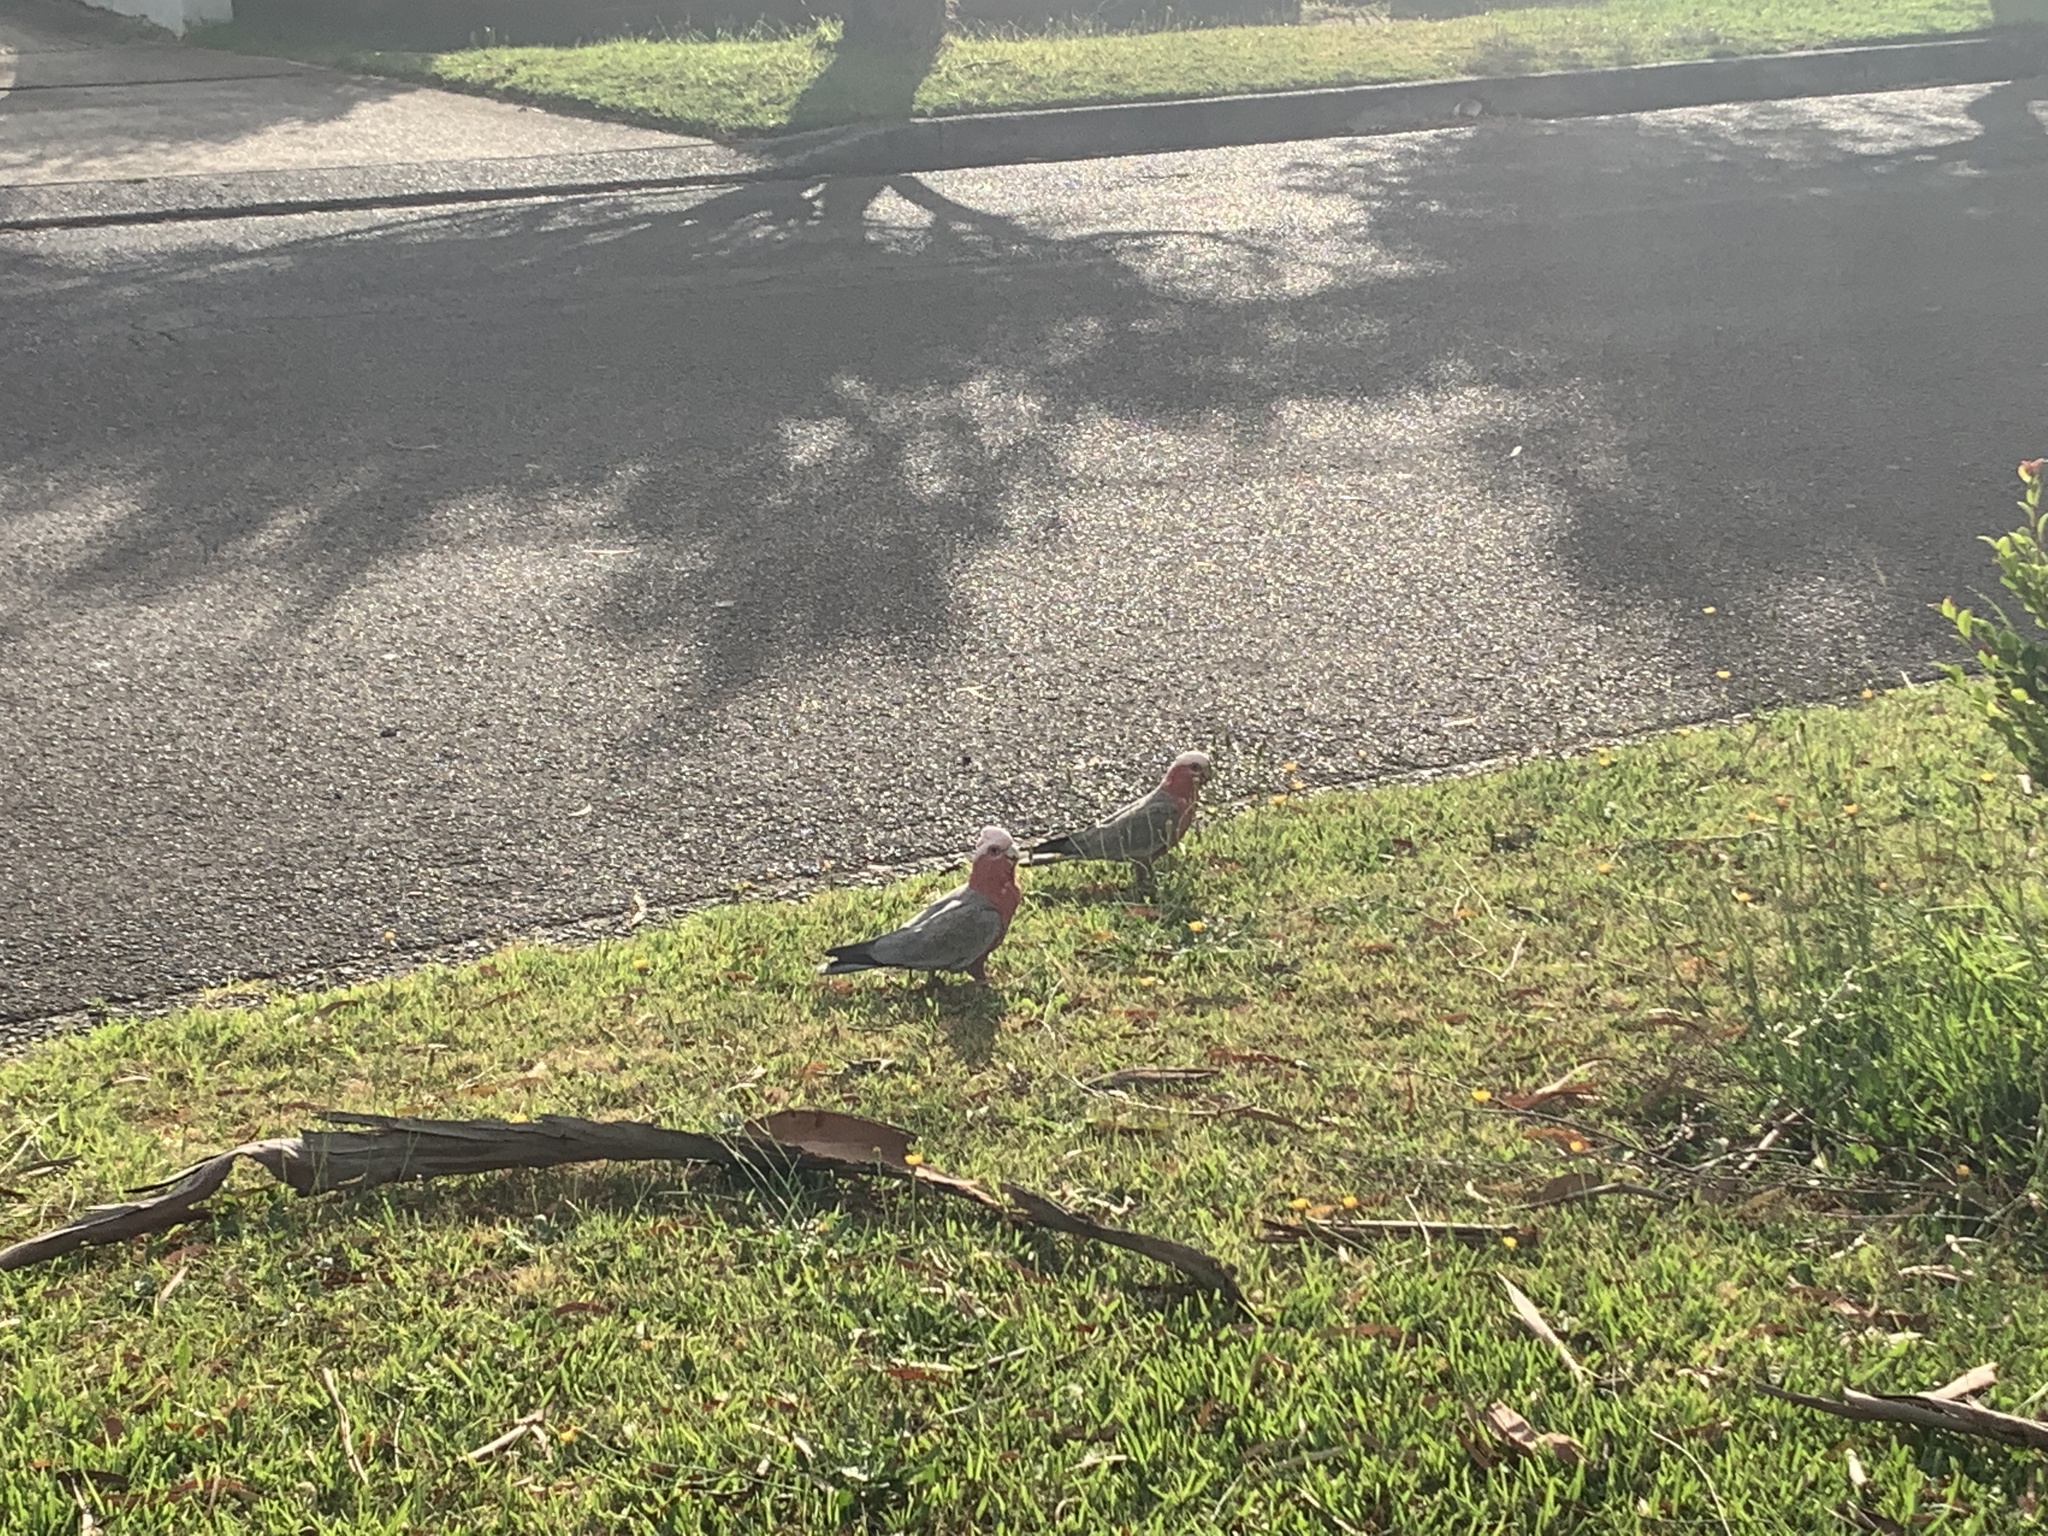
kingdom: Animalia
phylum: Chordata
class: Aves
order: Psittaciformes
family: Psittacidae
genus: Eolophus
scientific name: Eolophus roseicapilla
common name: Galah
